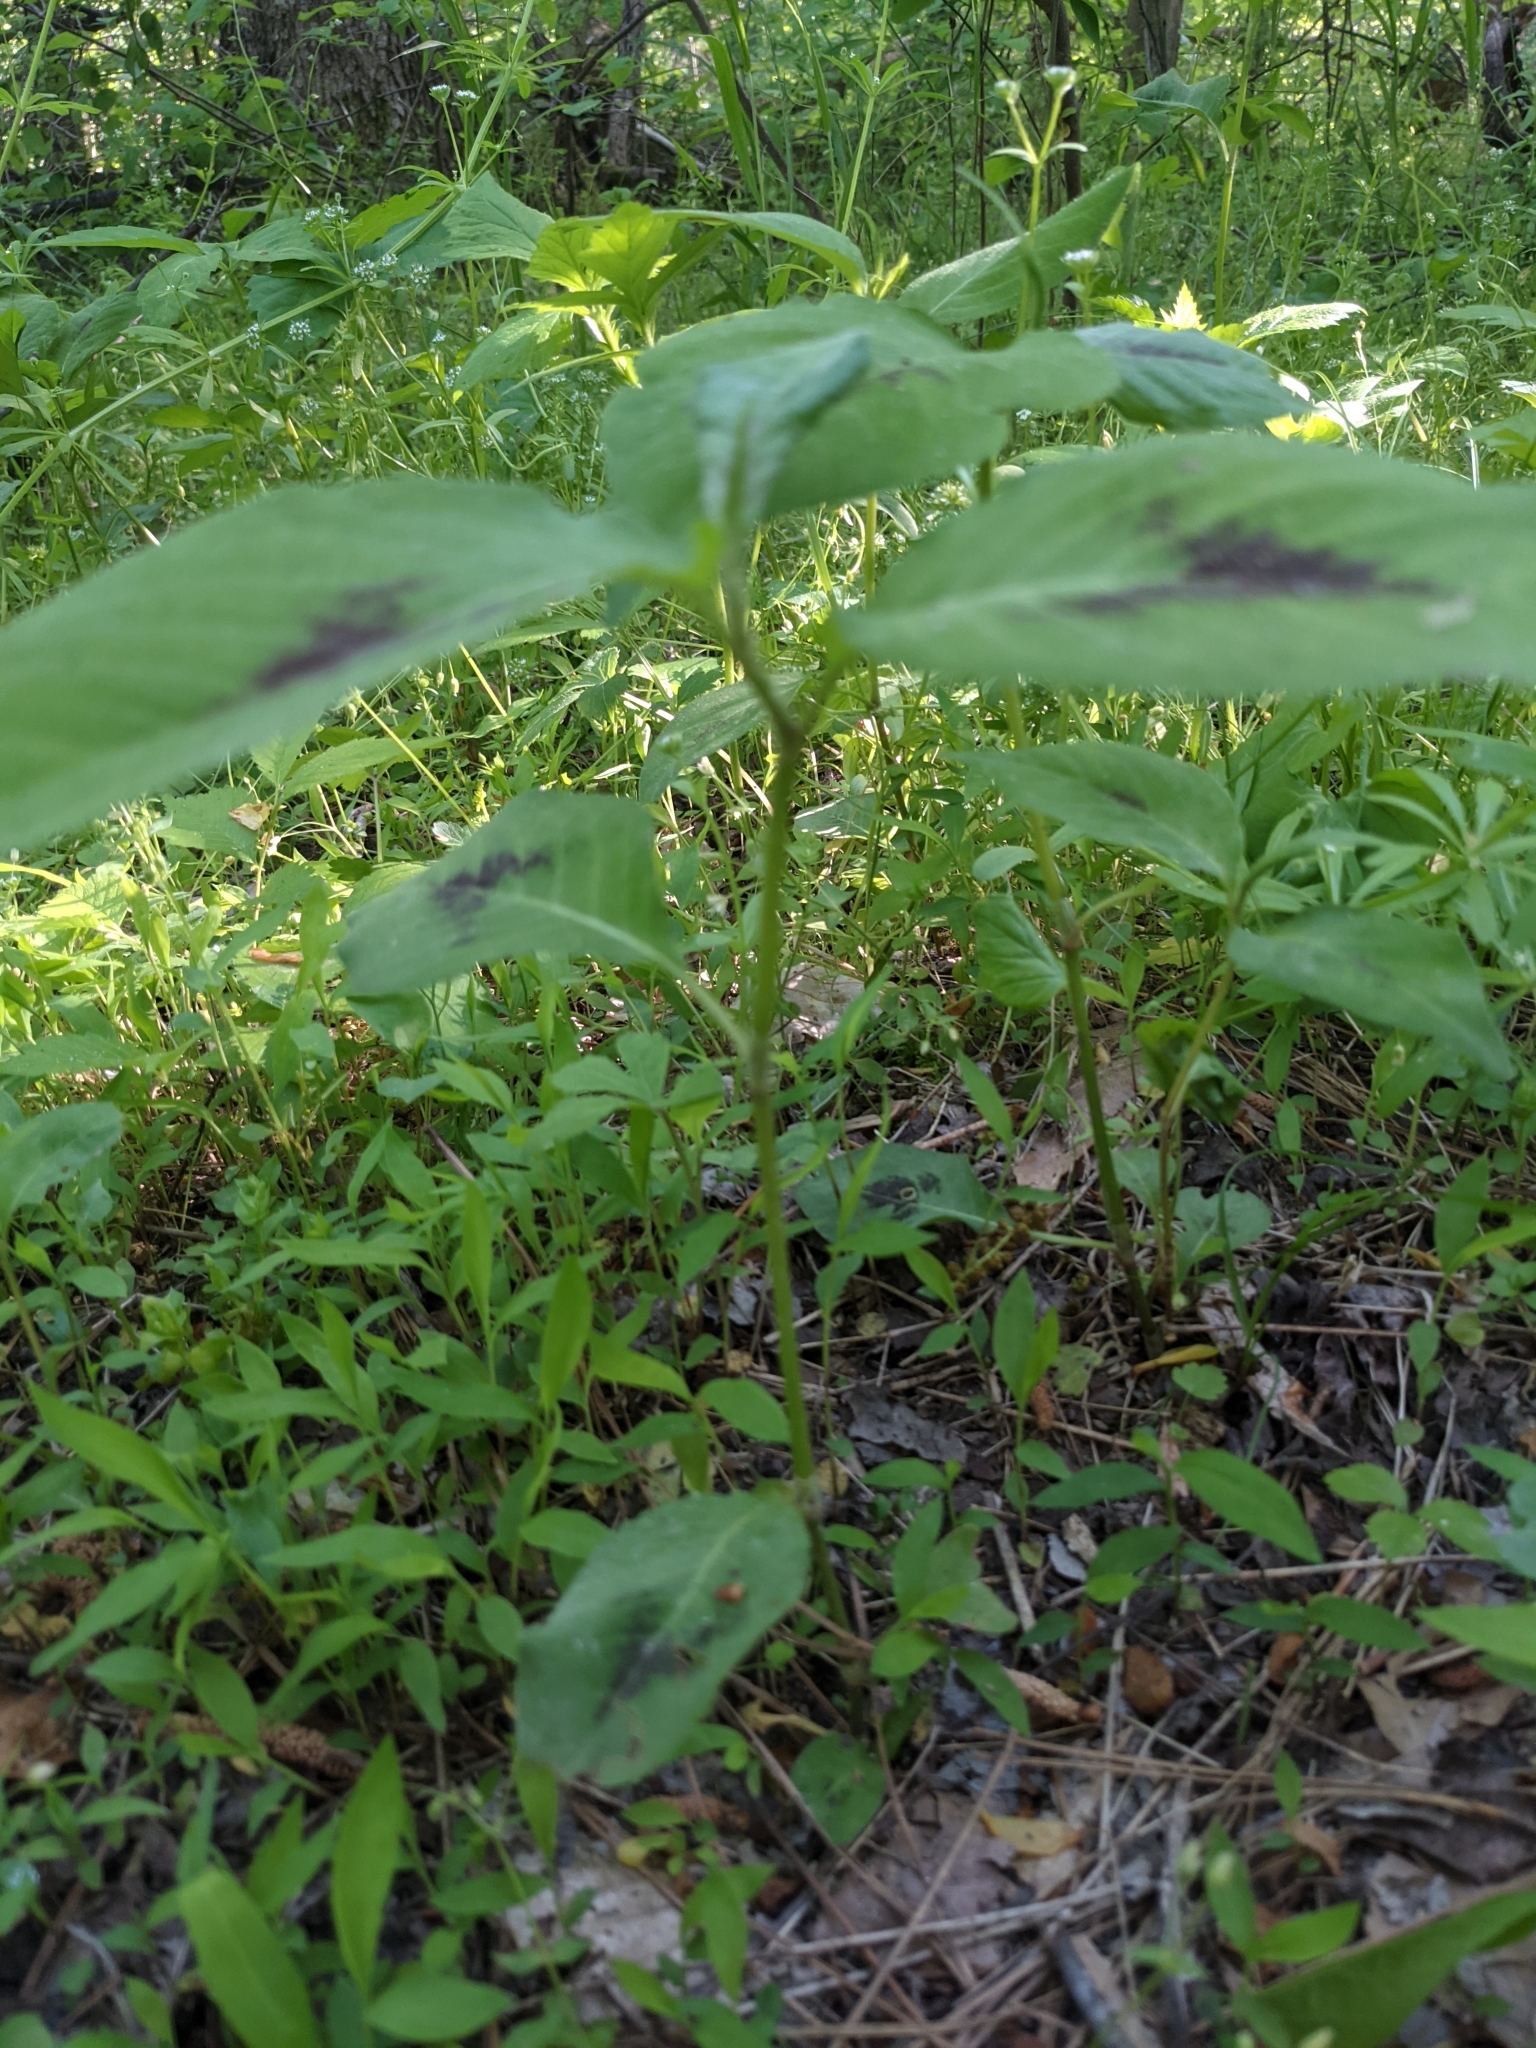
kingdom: Plantae
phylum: Tracheophyta
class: Magnoliopsida
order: Caryophyllales
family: Polygonaceae
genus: Persicaria
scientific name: Persicaria virginiana
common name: Jumpseed
